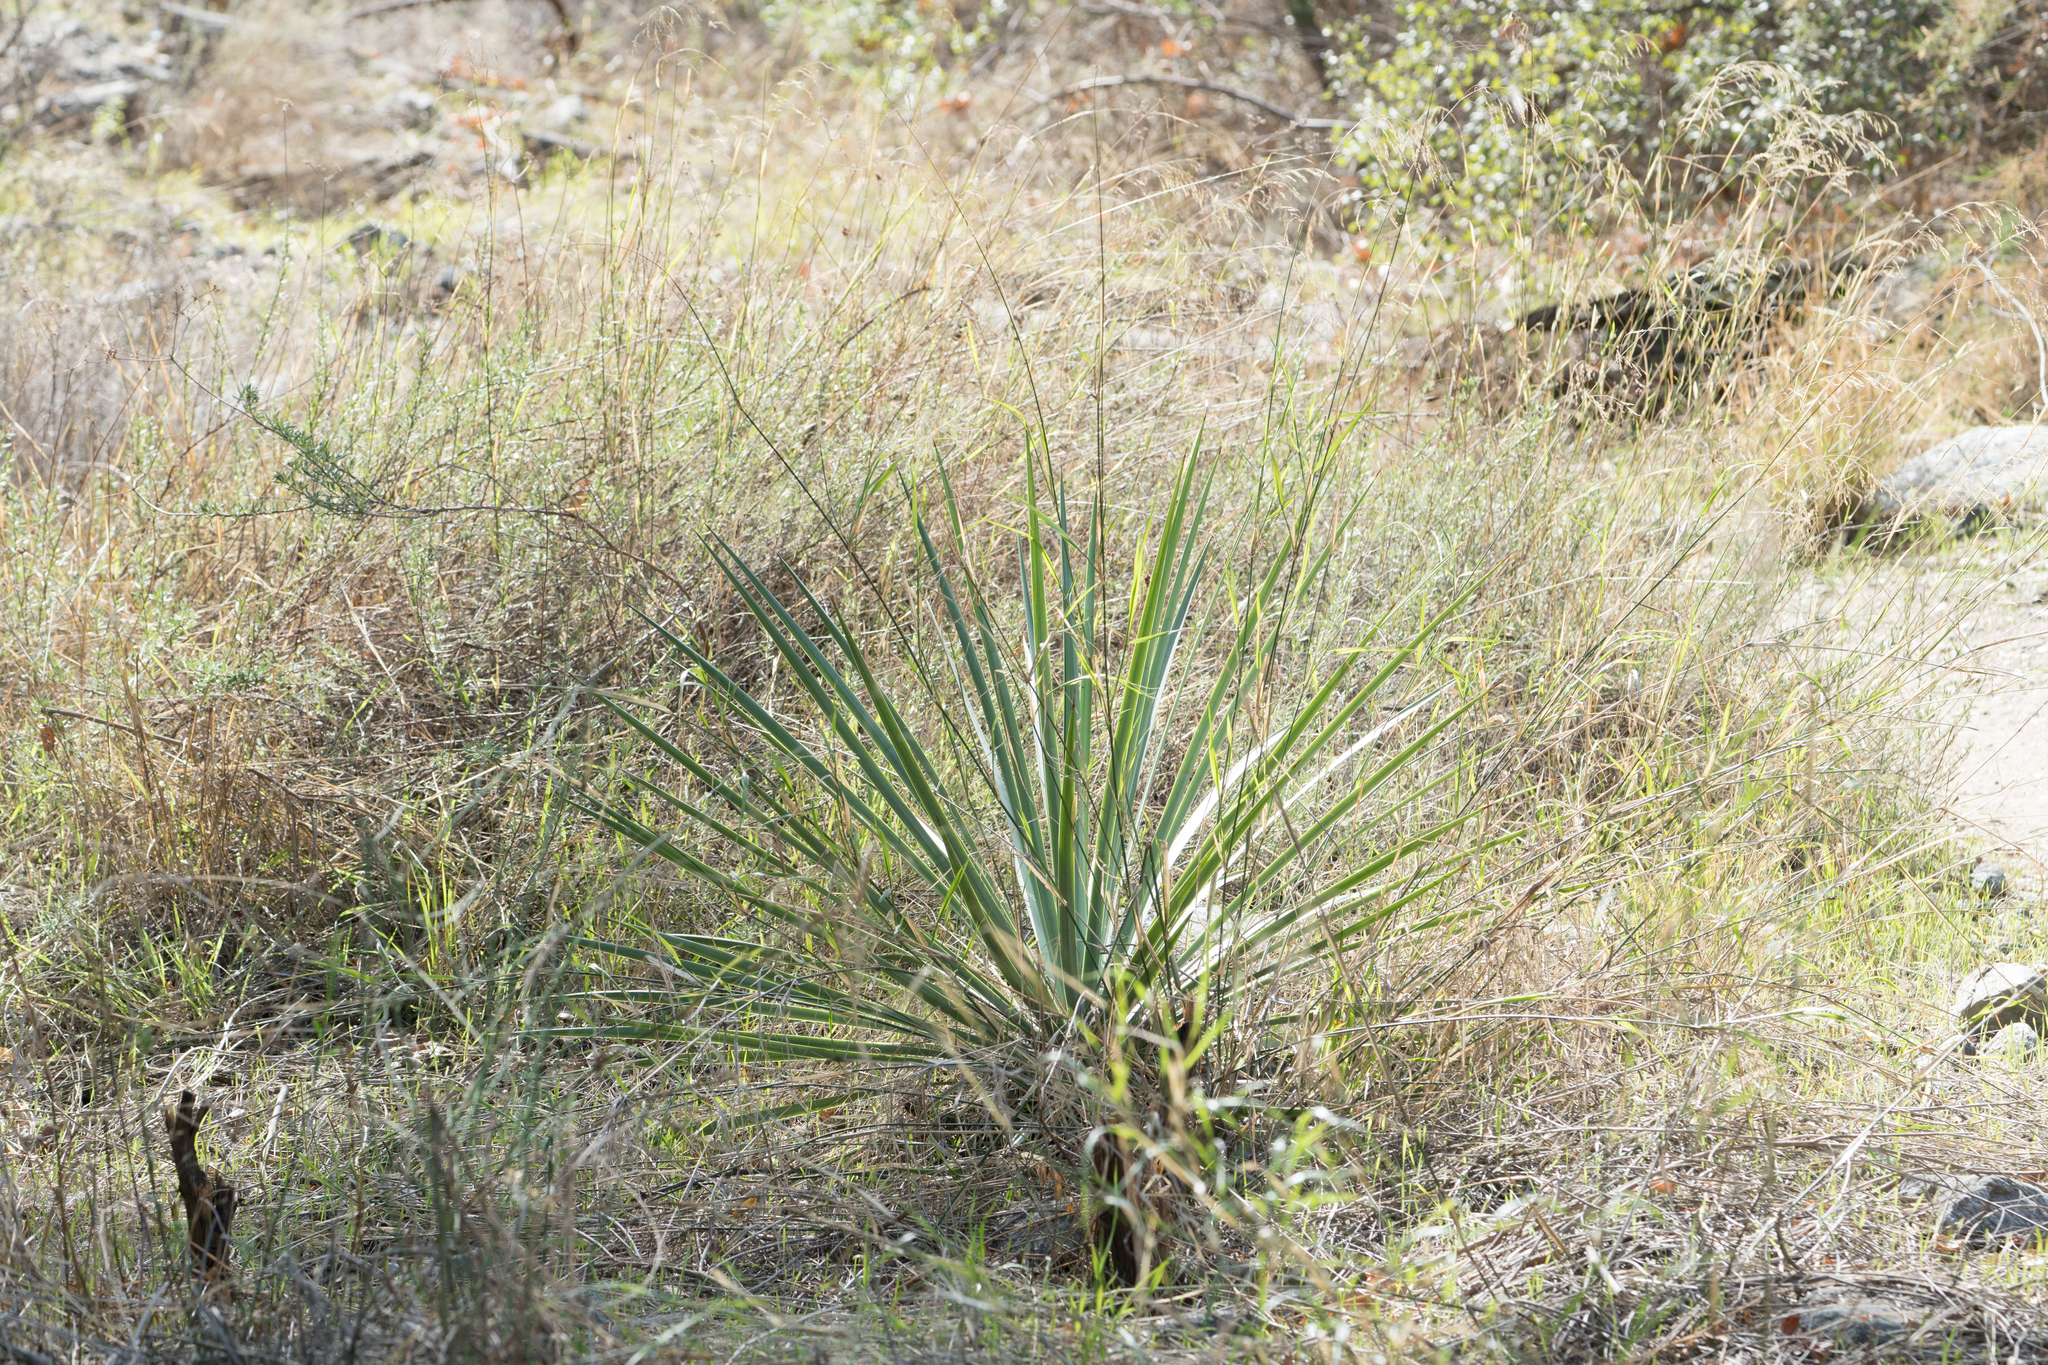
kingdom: Plantae
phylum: Tracheophyta
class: Liliopsida
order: Asparagales
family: Asparagaceae
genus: Hesperoyucca
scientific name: Hesperoyucca whipplei
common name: Our lord's-candle
